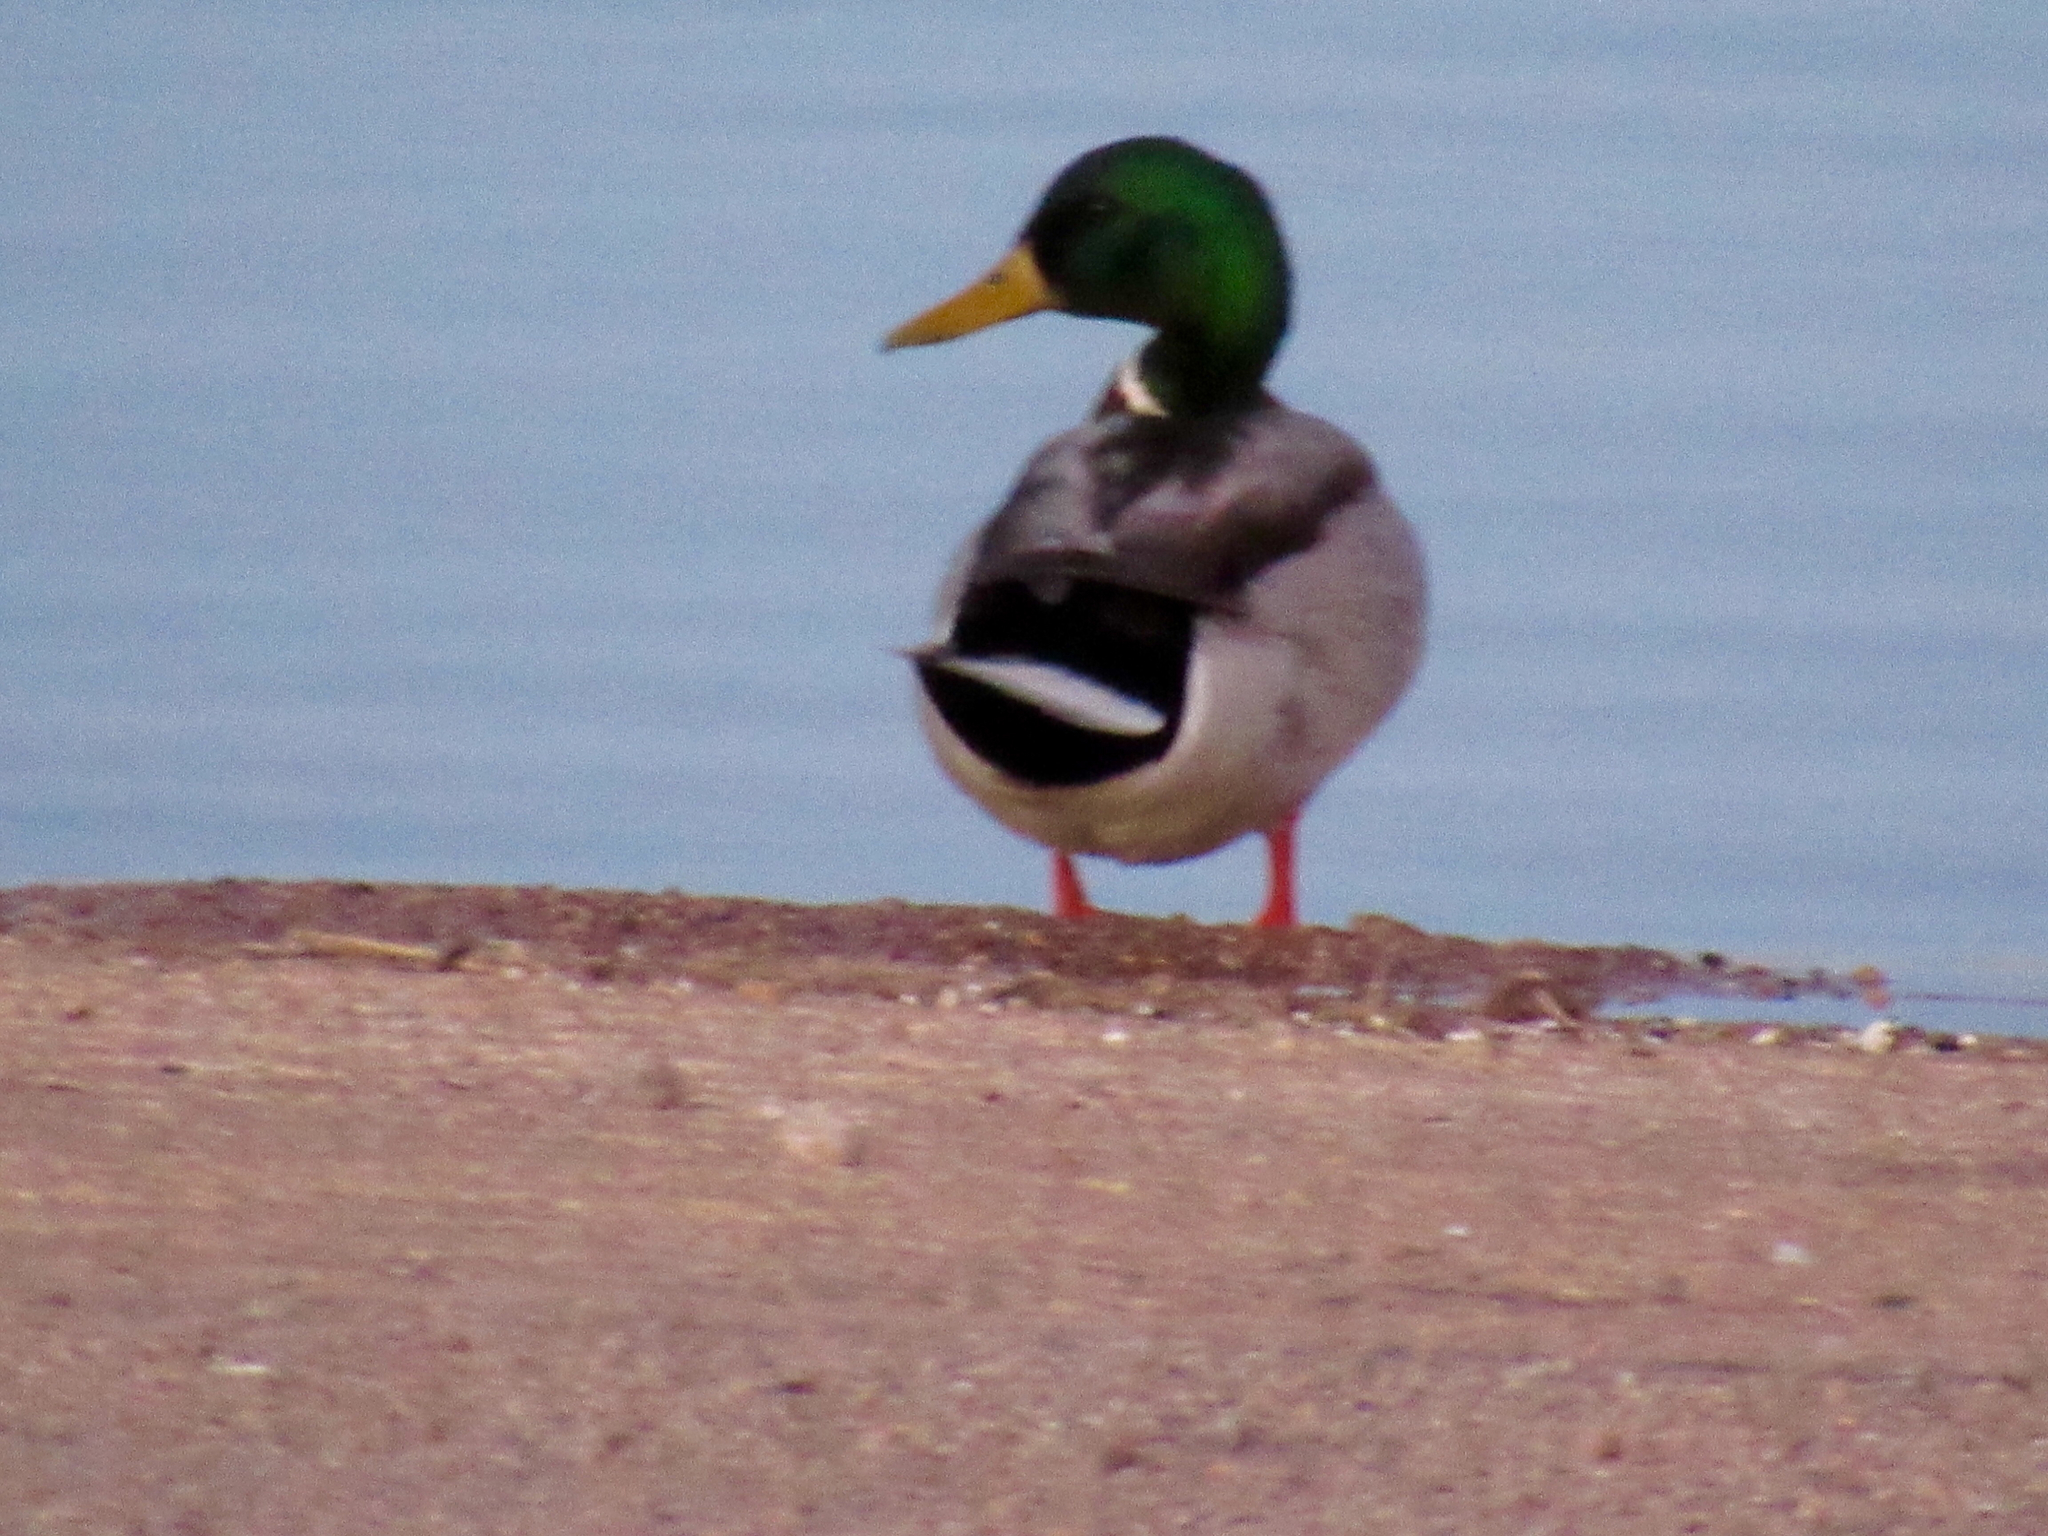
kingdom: Animalia
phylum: Chordata
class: Aves
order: Anseriformes
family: Anatidae
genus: Anas
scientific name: Anas platyrhynchos
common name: Mallard
